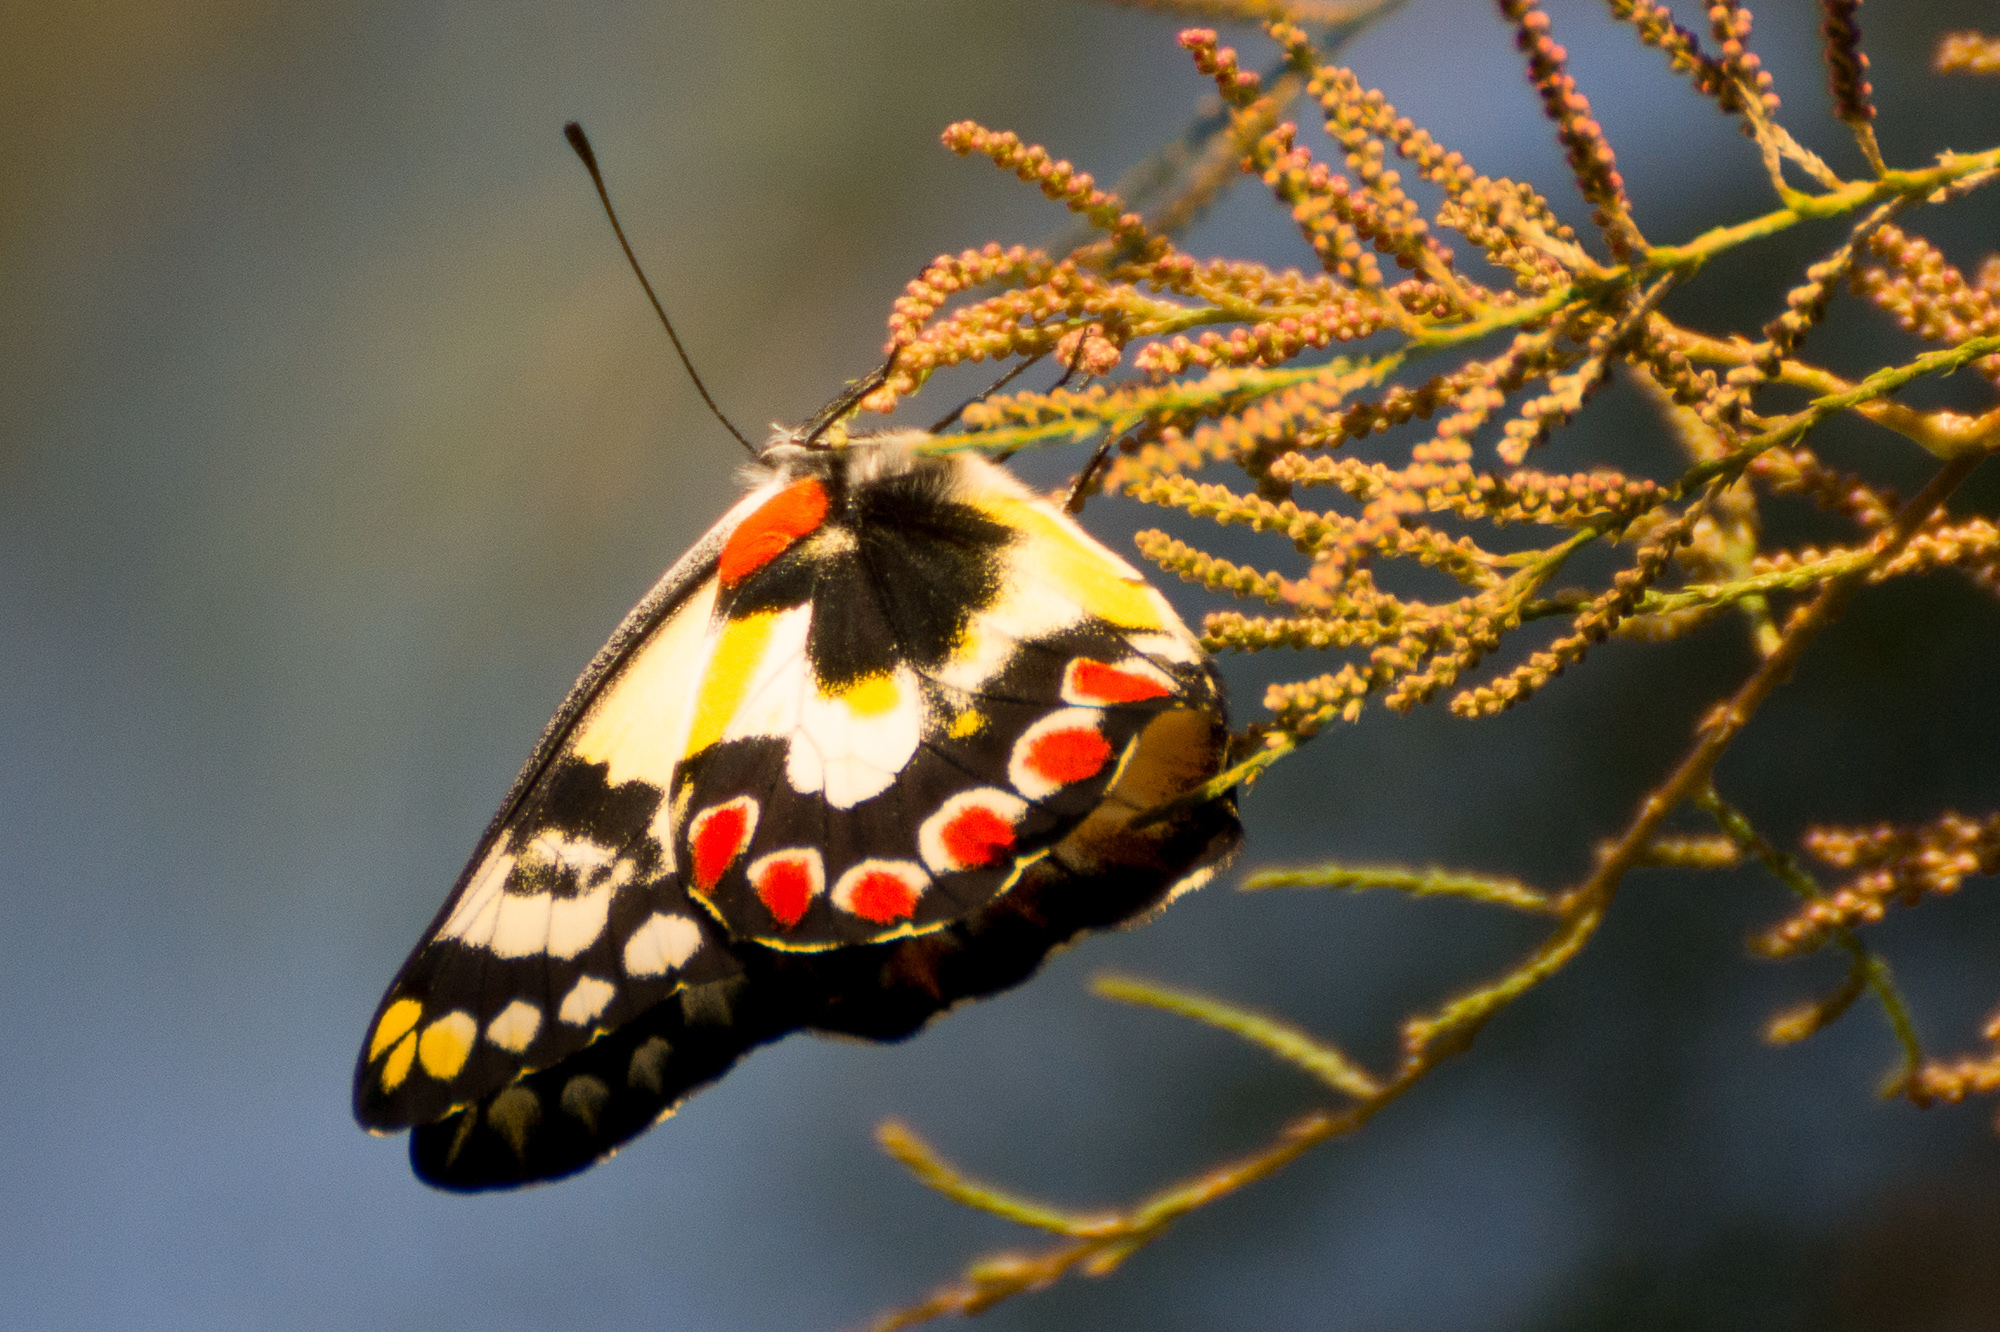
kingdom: Animalia
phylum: Arthropoda
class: Insecta
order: Lepidoptera
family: Pieridae
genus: Delias
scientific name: Delias aganippe
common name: Red-spotted jezebel
